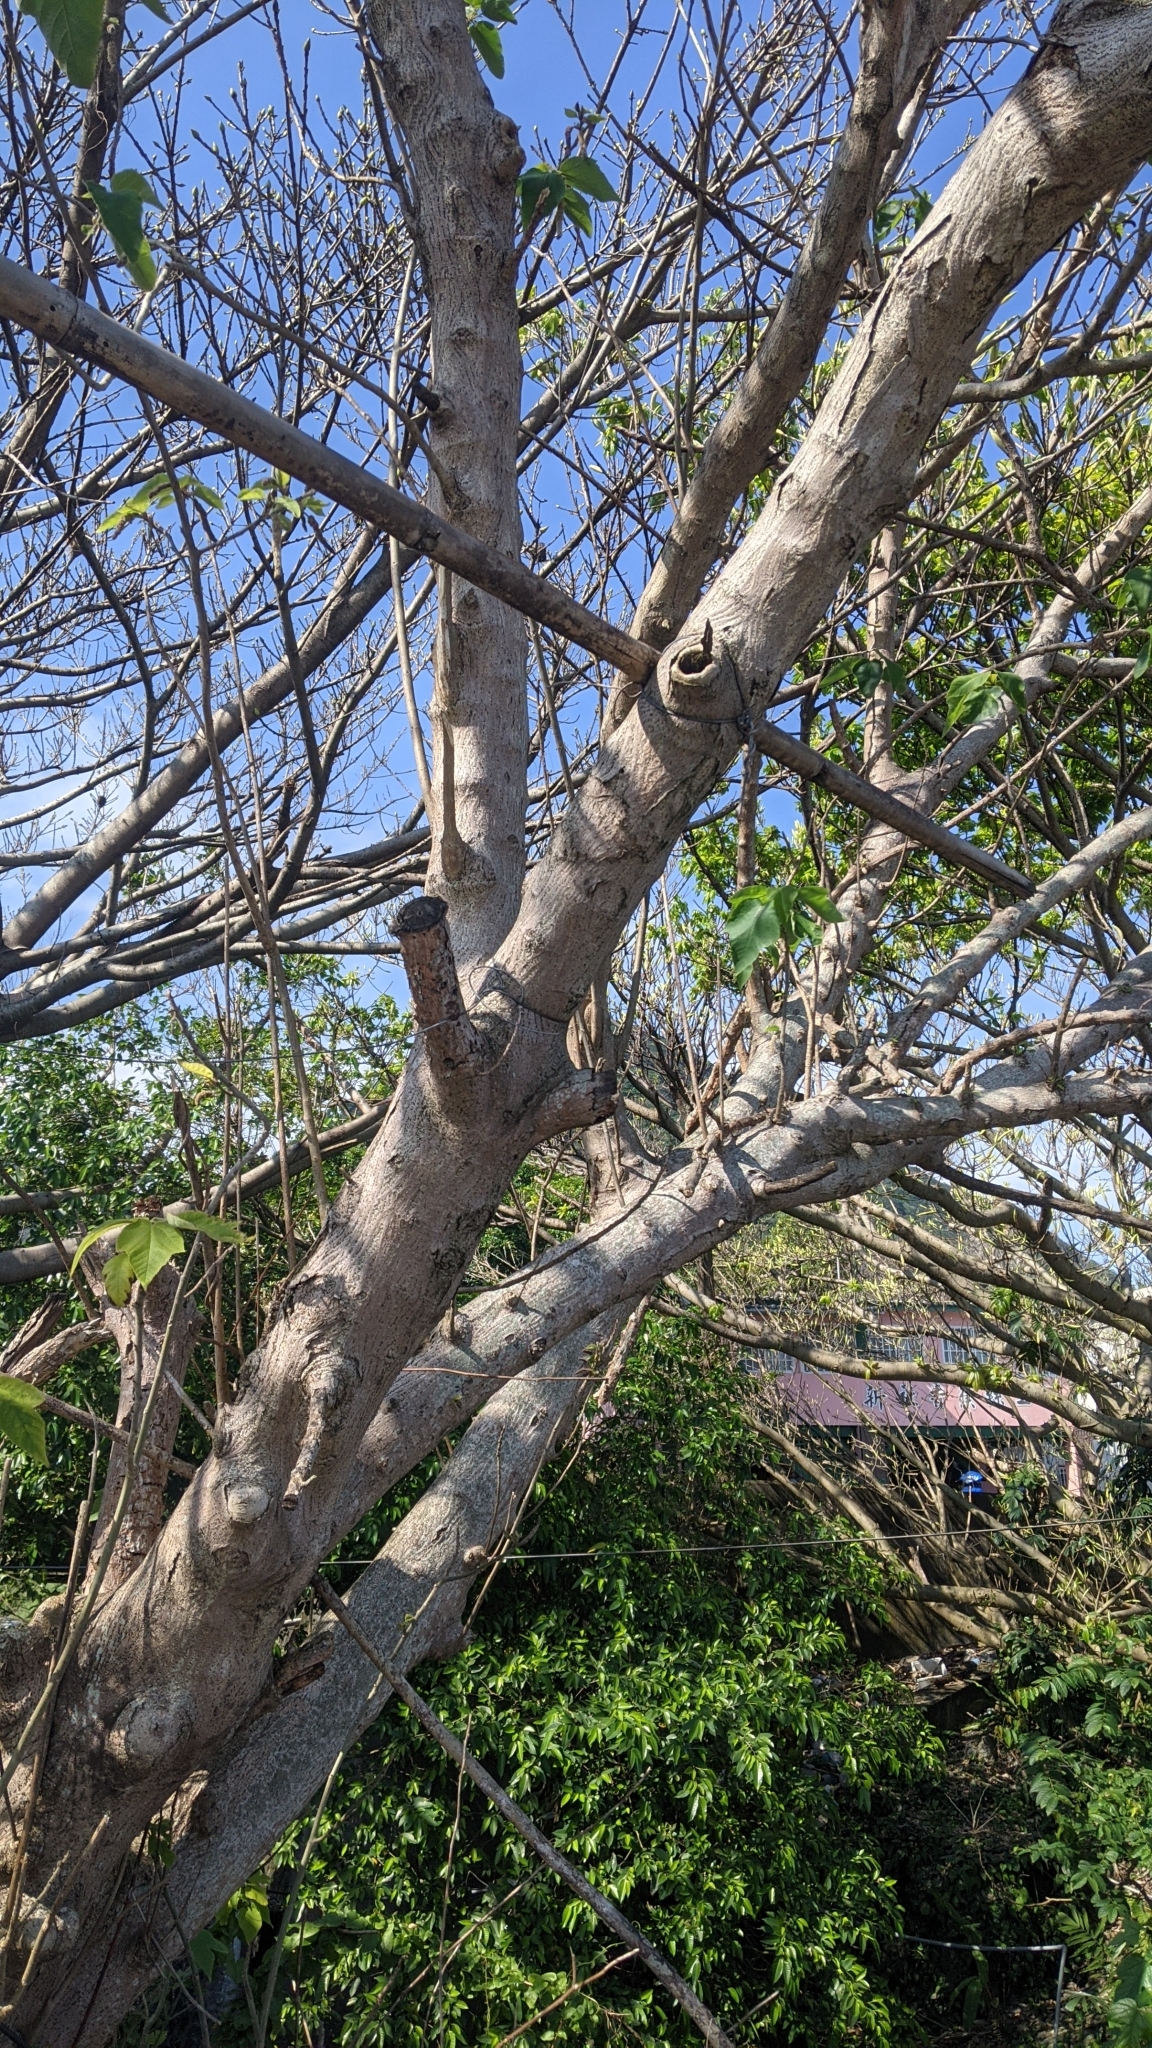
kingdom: Plantae
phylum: Tracheophyta
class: Magnoliopsida
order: Rosales
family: Moraceae
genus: Broussonetia
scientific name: Broussonetia papyrifera
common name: Paper mulberry
